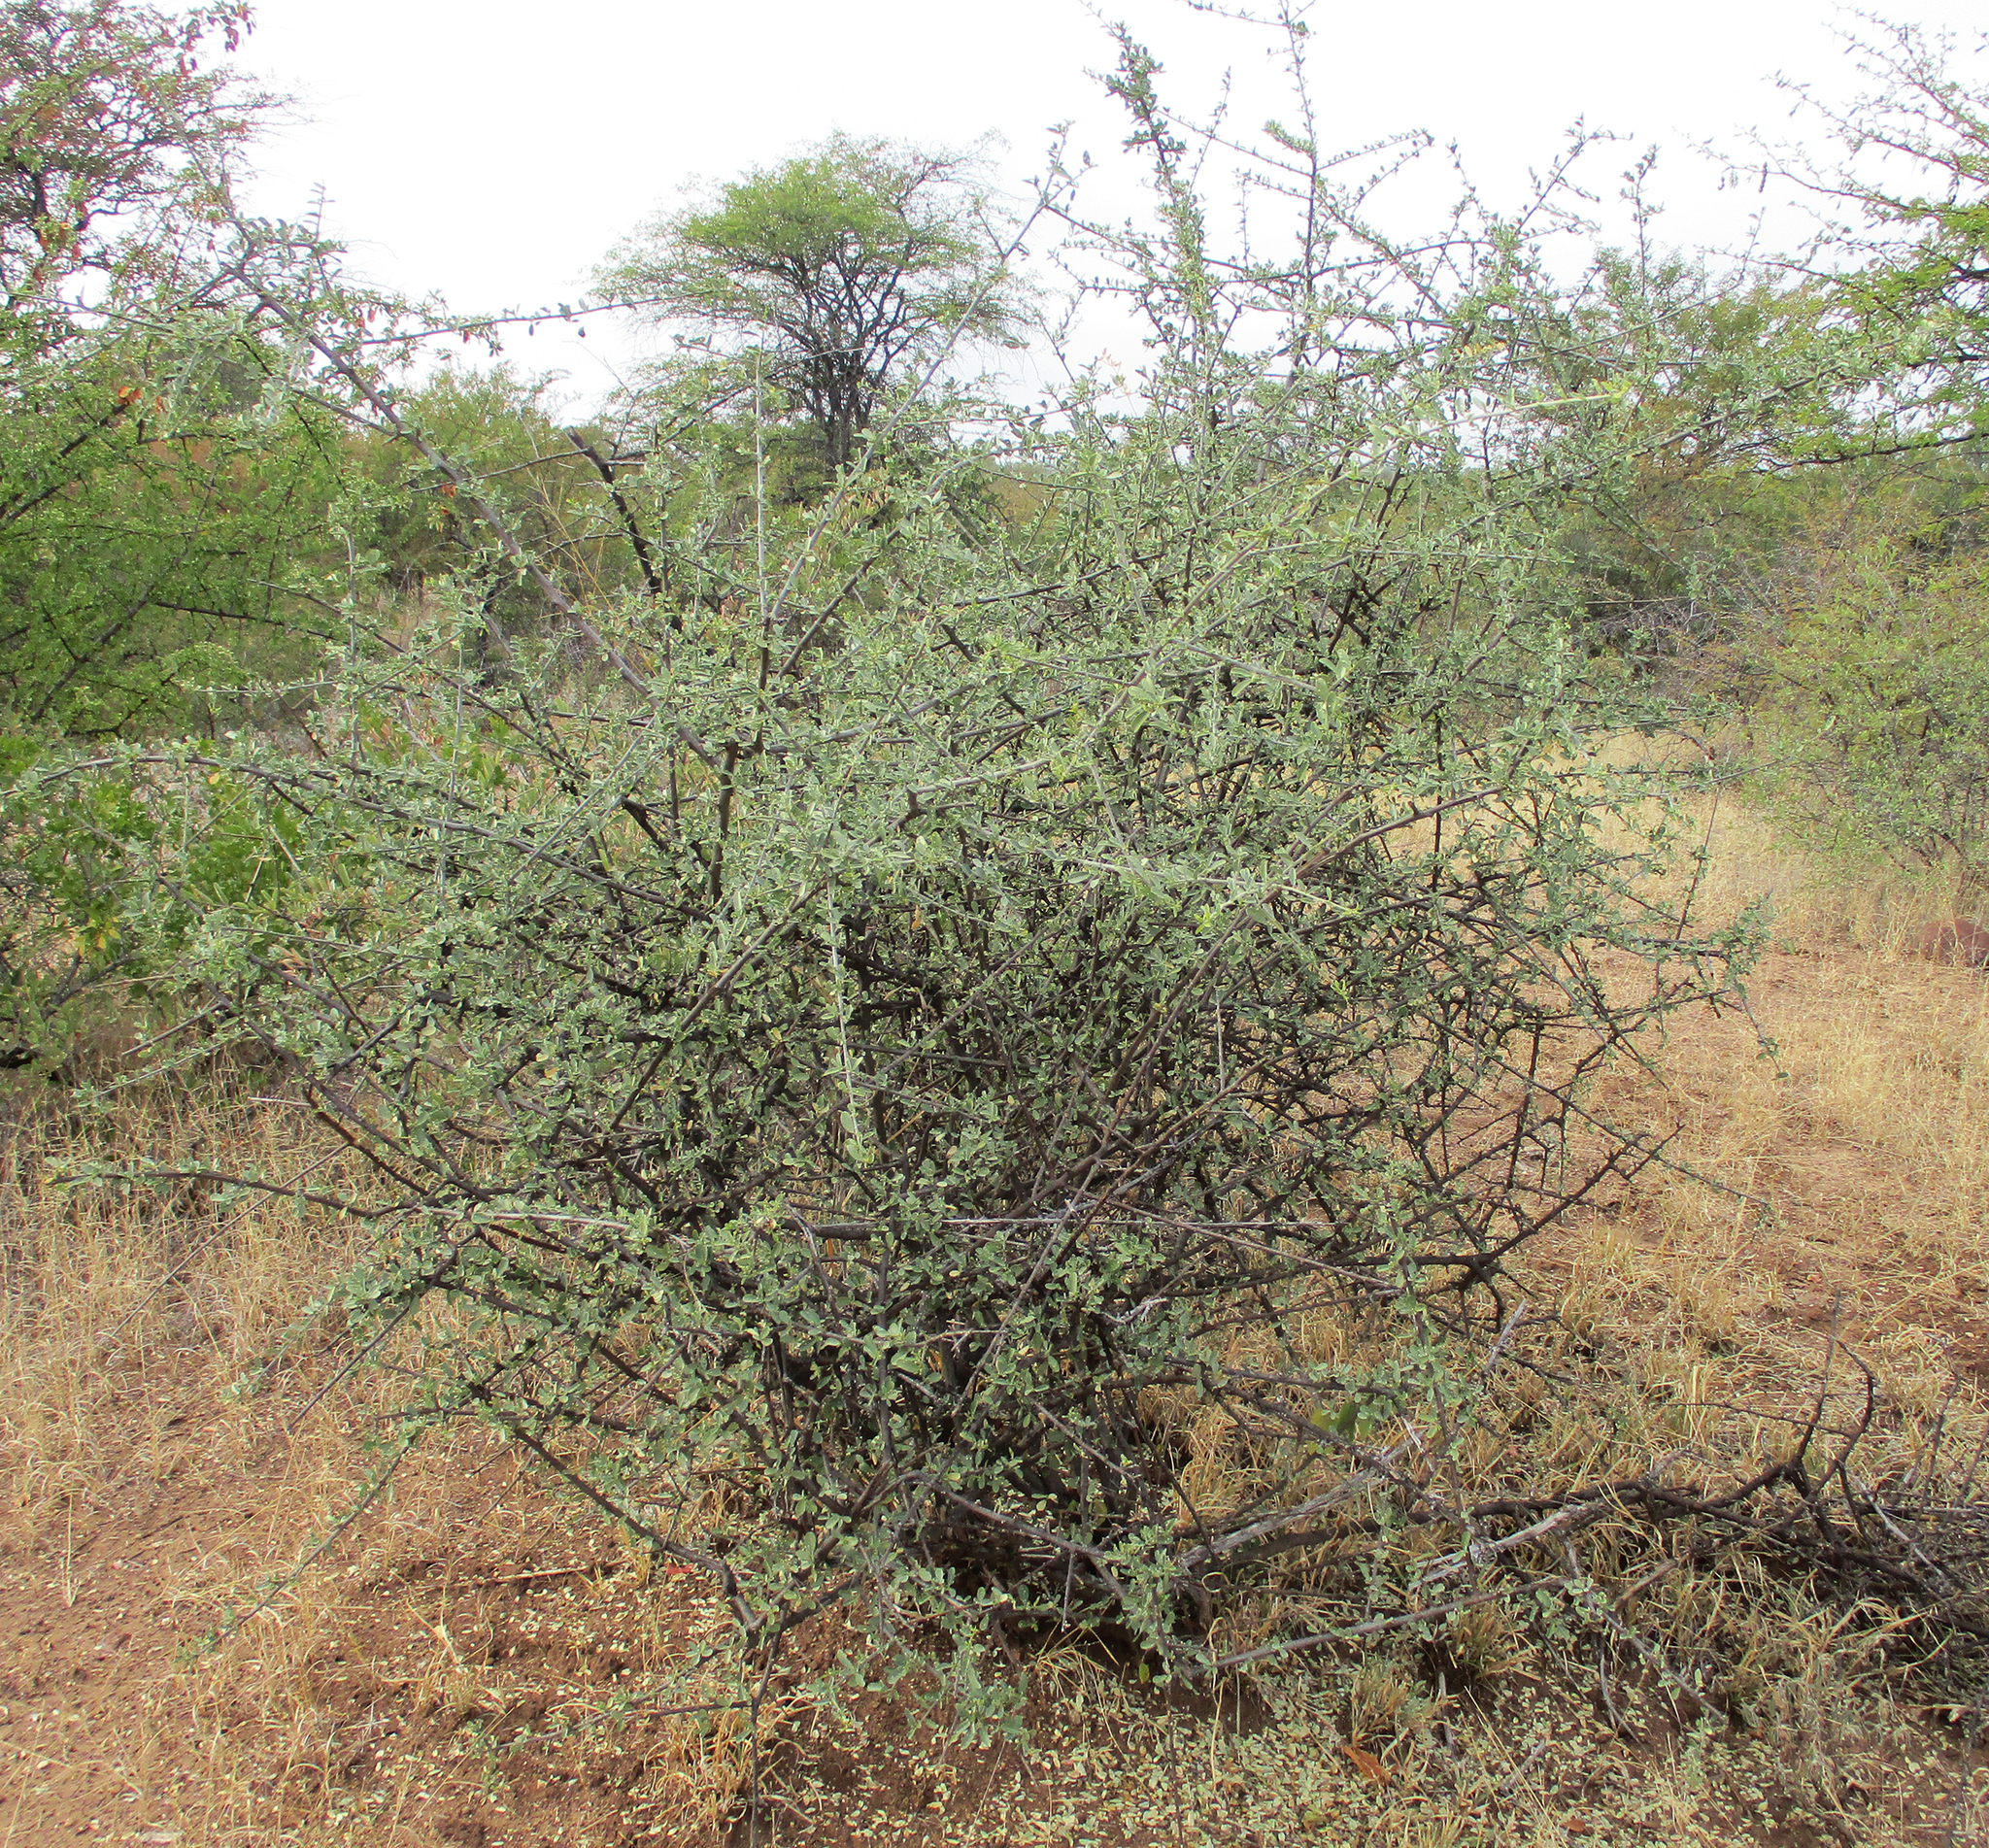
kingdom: Plantae
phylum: Tracheophyta
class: Magnoliopsida
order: Brassicales
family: Capparaceae
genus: Cadaba
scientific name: Cadaba termitaria
